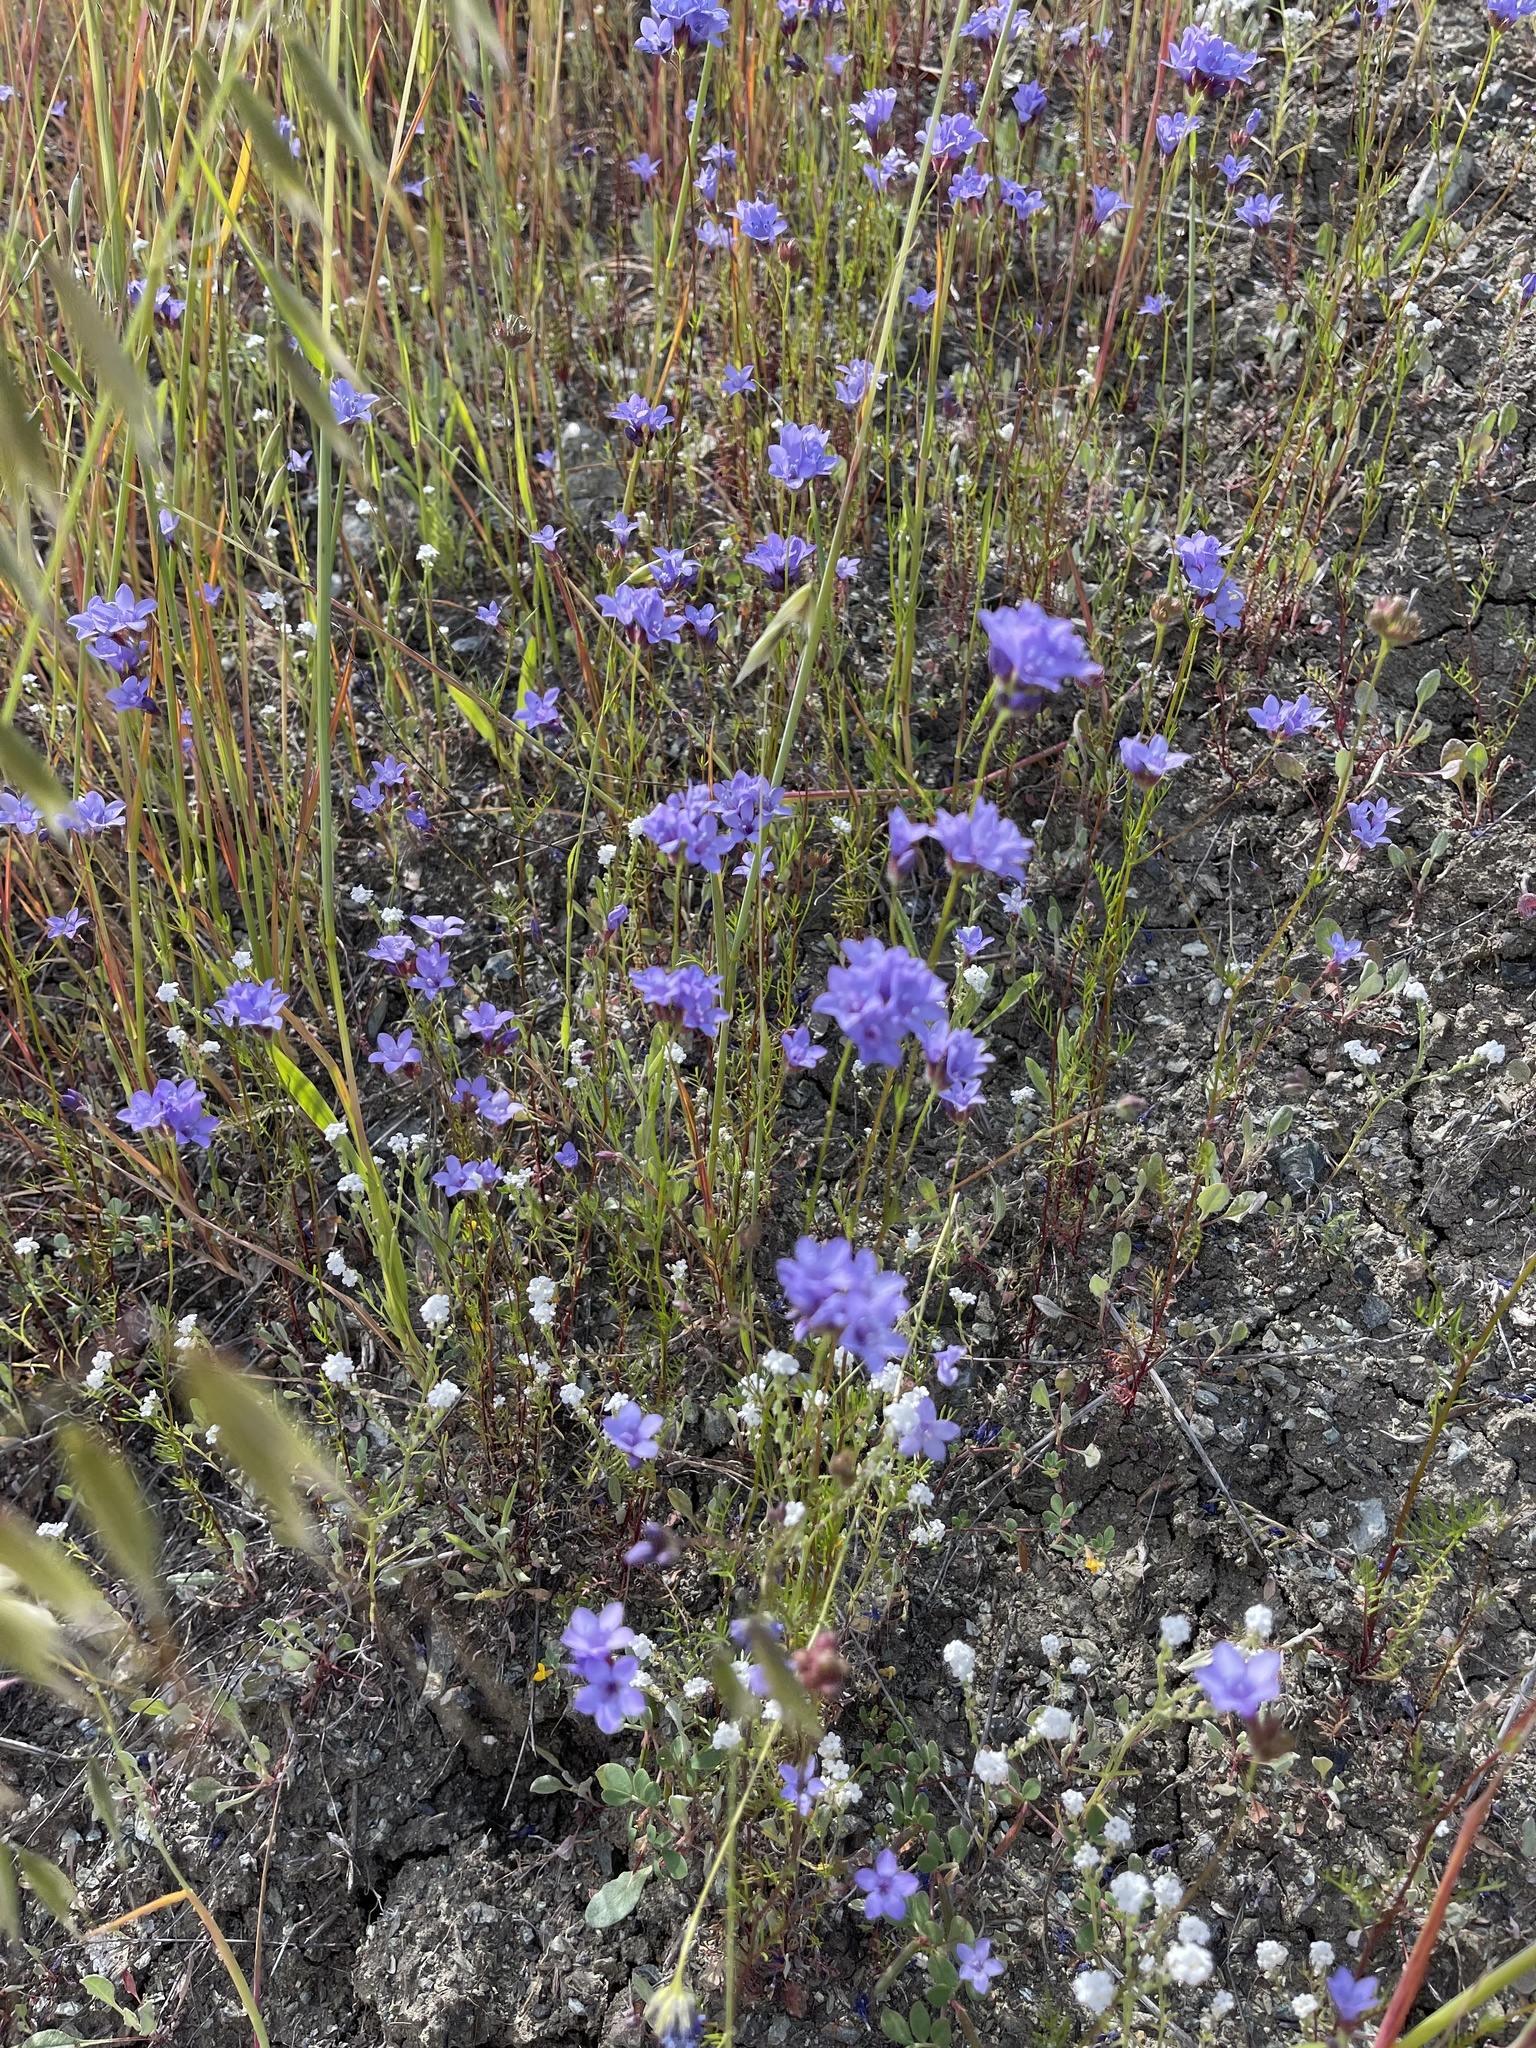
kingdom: Plantae
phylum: Tracheophyta
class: Magnoliopsida
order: Ericales
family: Polemoniaceae
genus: Gilia
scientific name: Gilia achilleifolia
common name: California gily-flower
